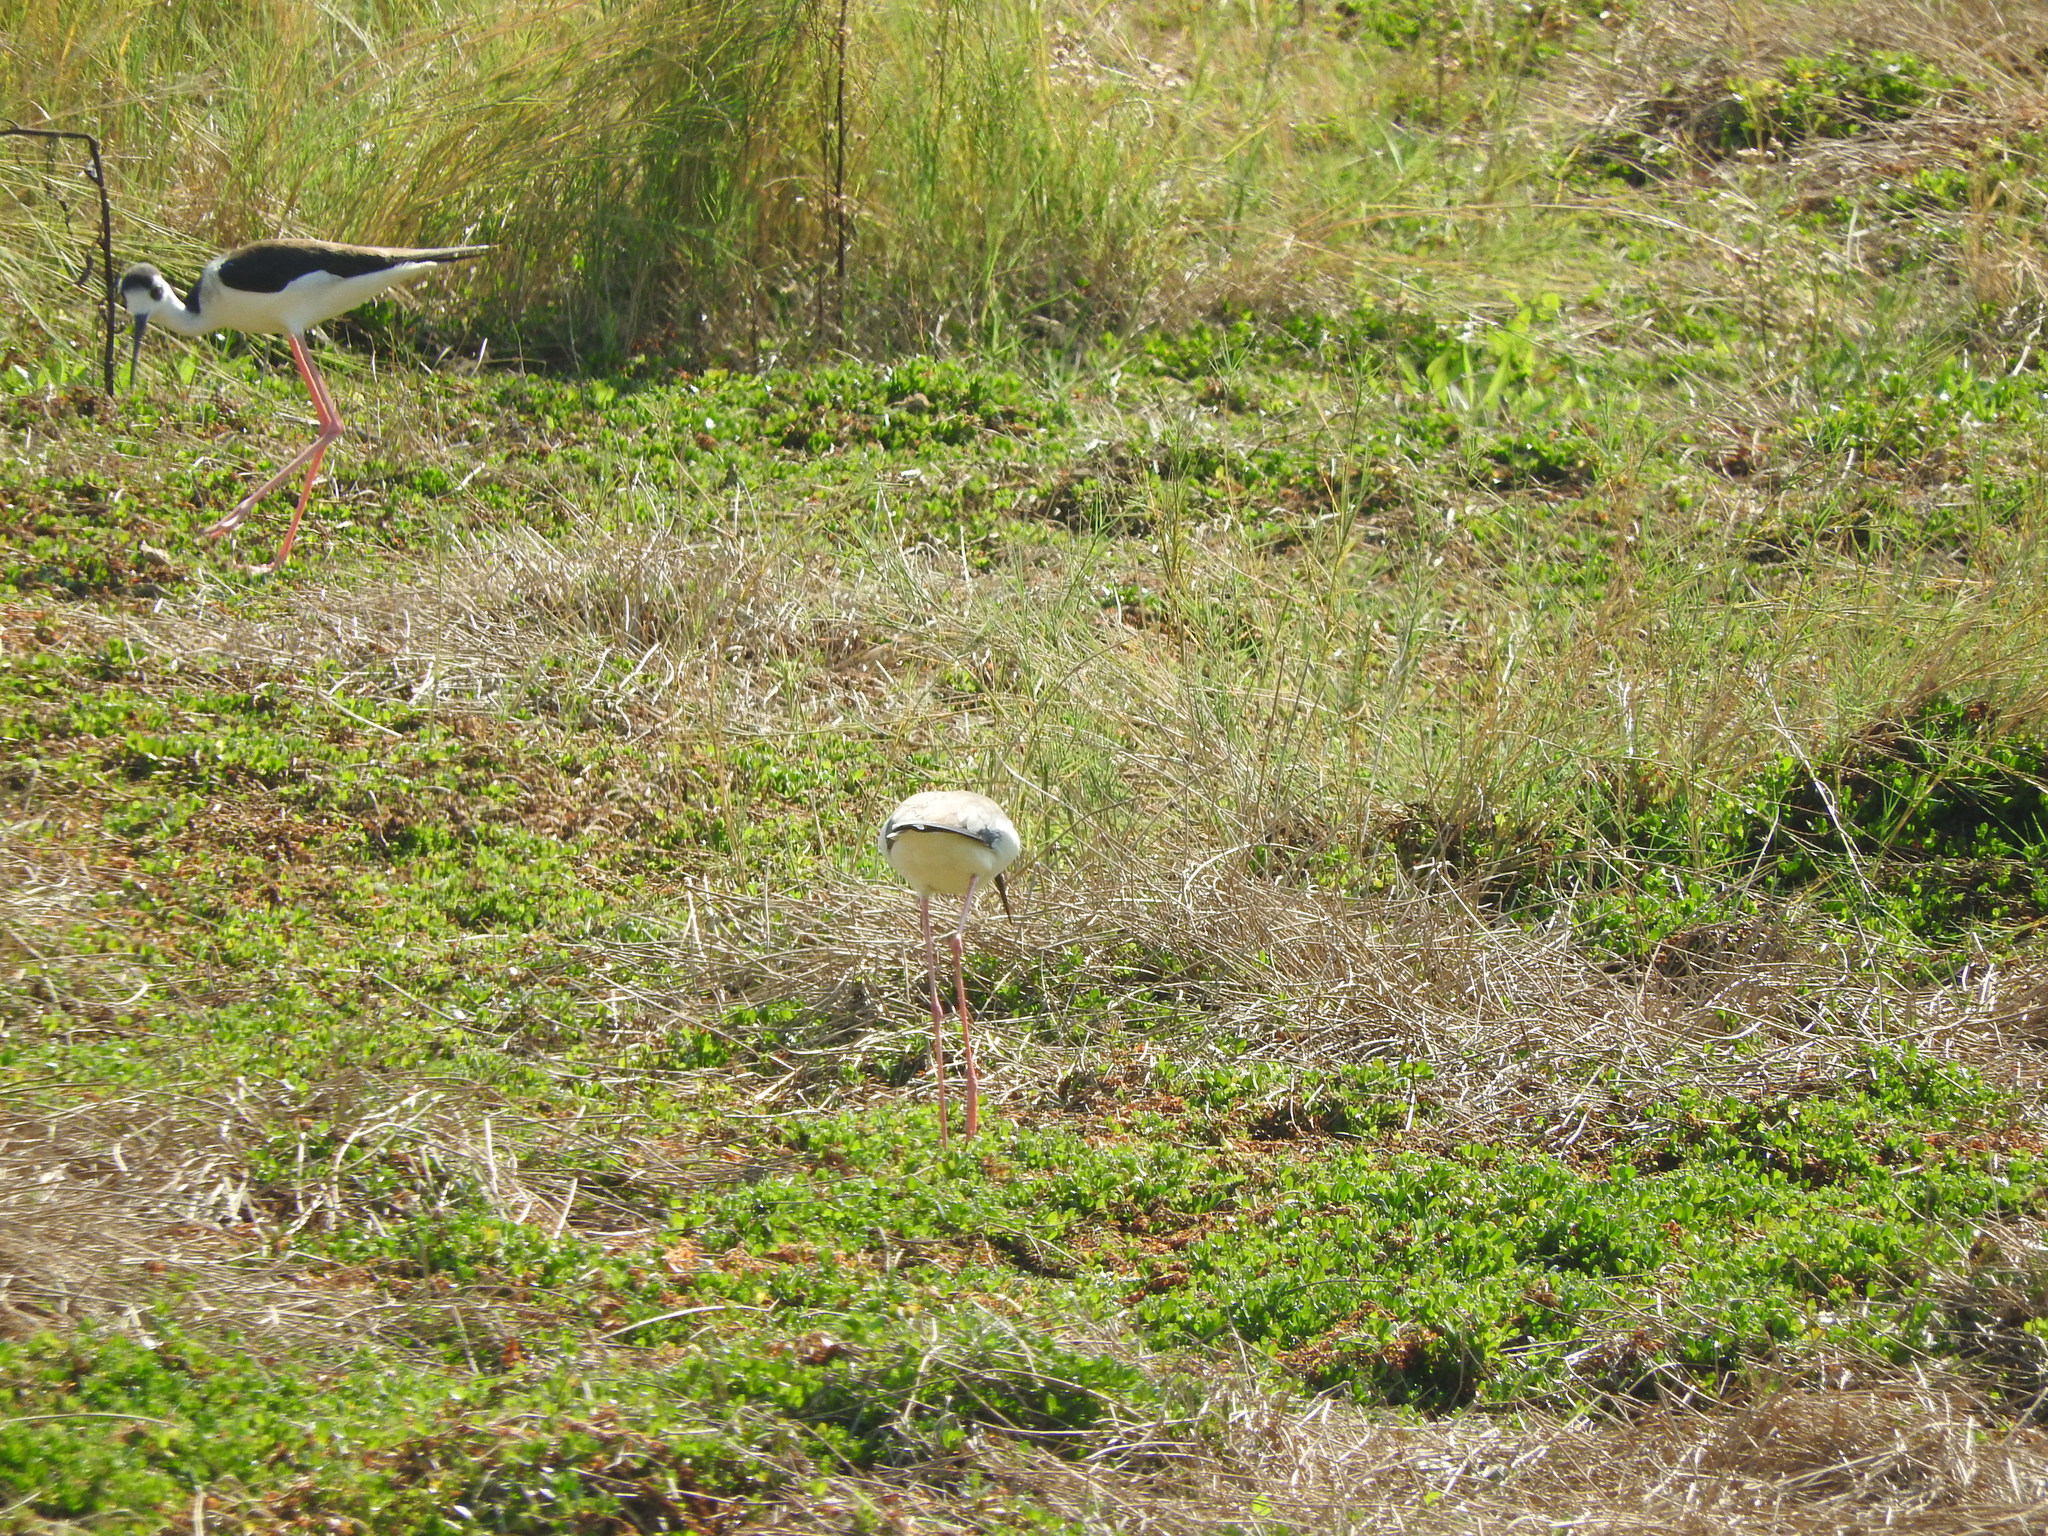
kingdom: Animalia
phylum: Chordata
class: Aves
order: Charadriiformes
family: Recurvirostridae
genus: Himantopus
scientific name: Himantopus mexicanus
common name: Black-necked stilt
